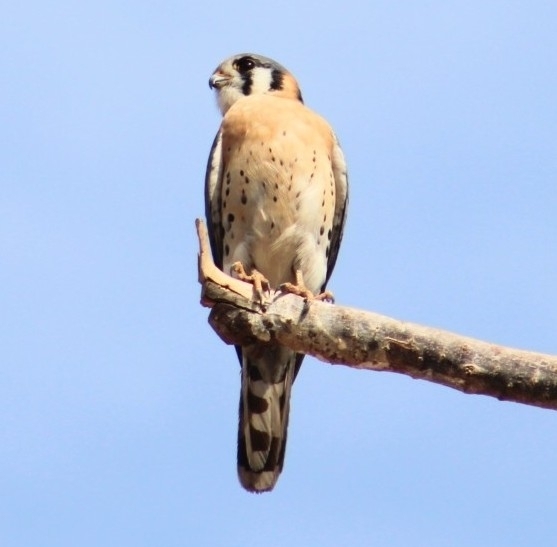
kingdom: Animalia
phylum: Chordata
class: Aves
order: Falconiformes
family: Falconidae
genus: Falco
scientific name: Falco sparverius
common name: American kestrel
